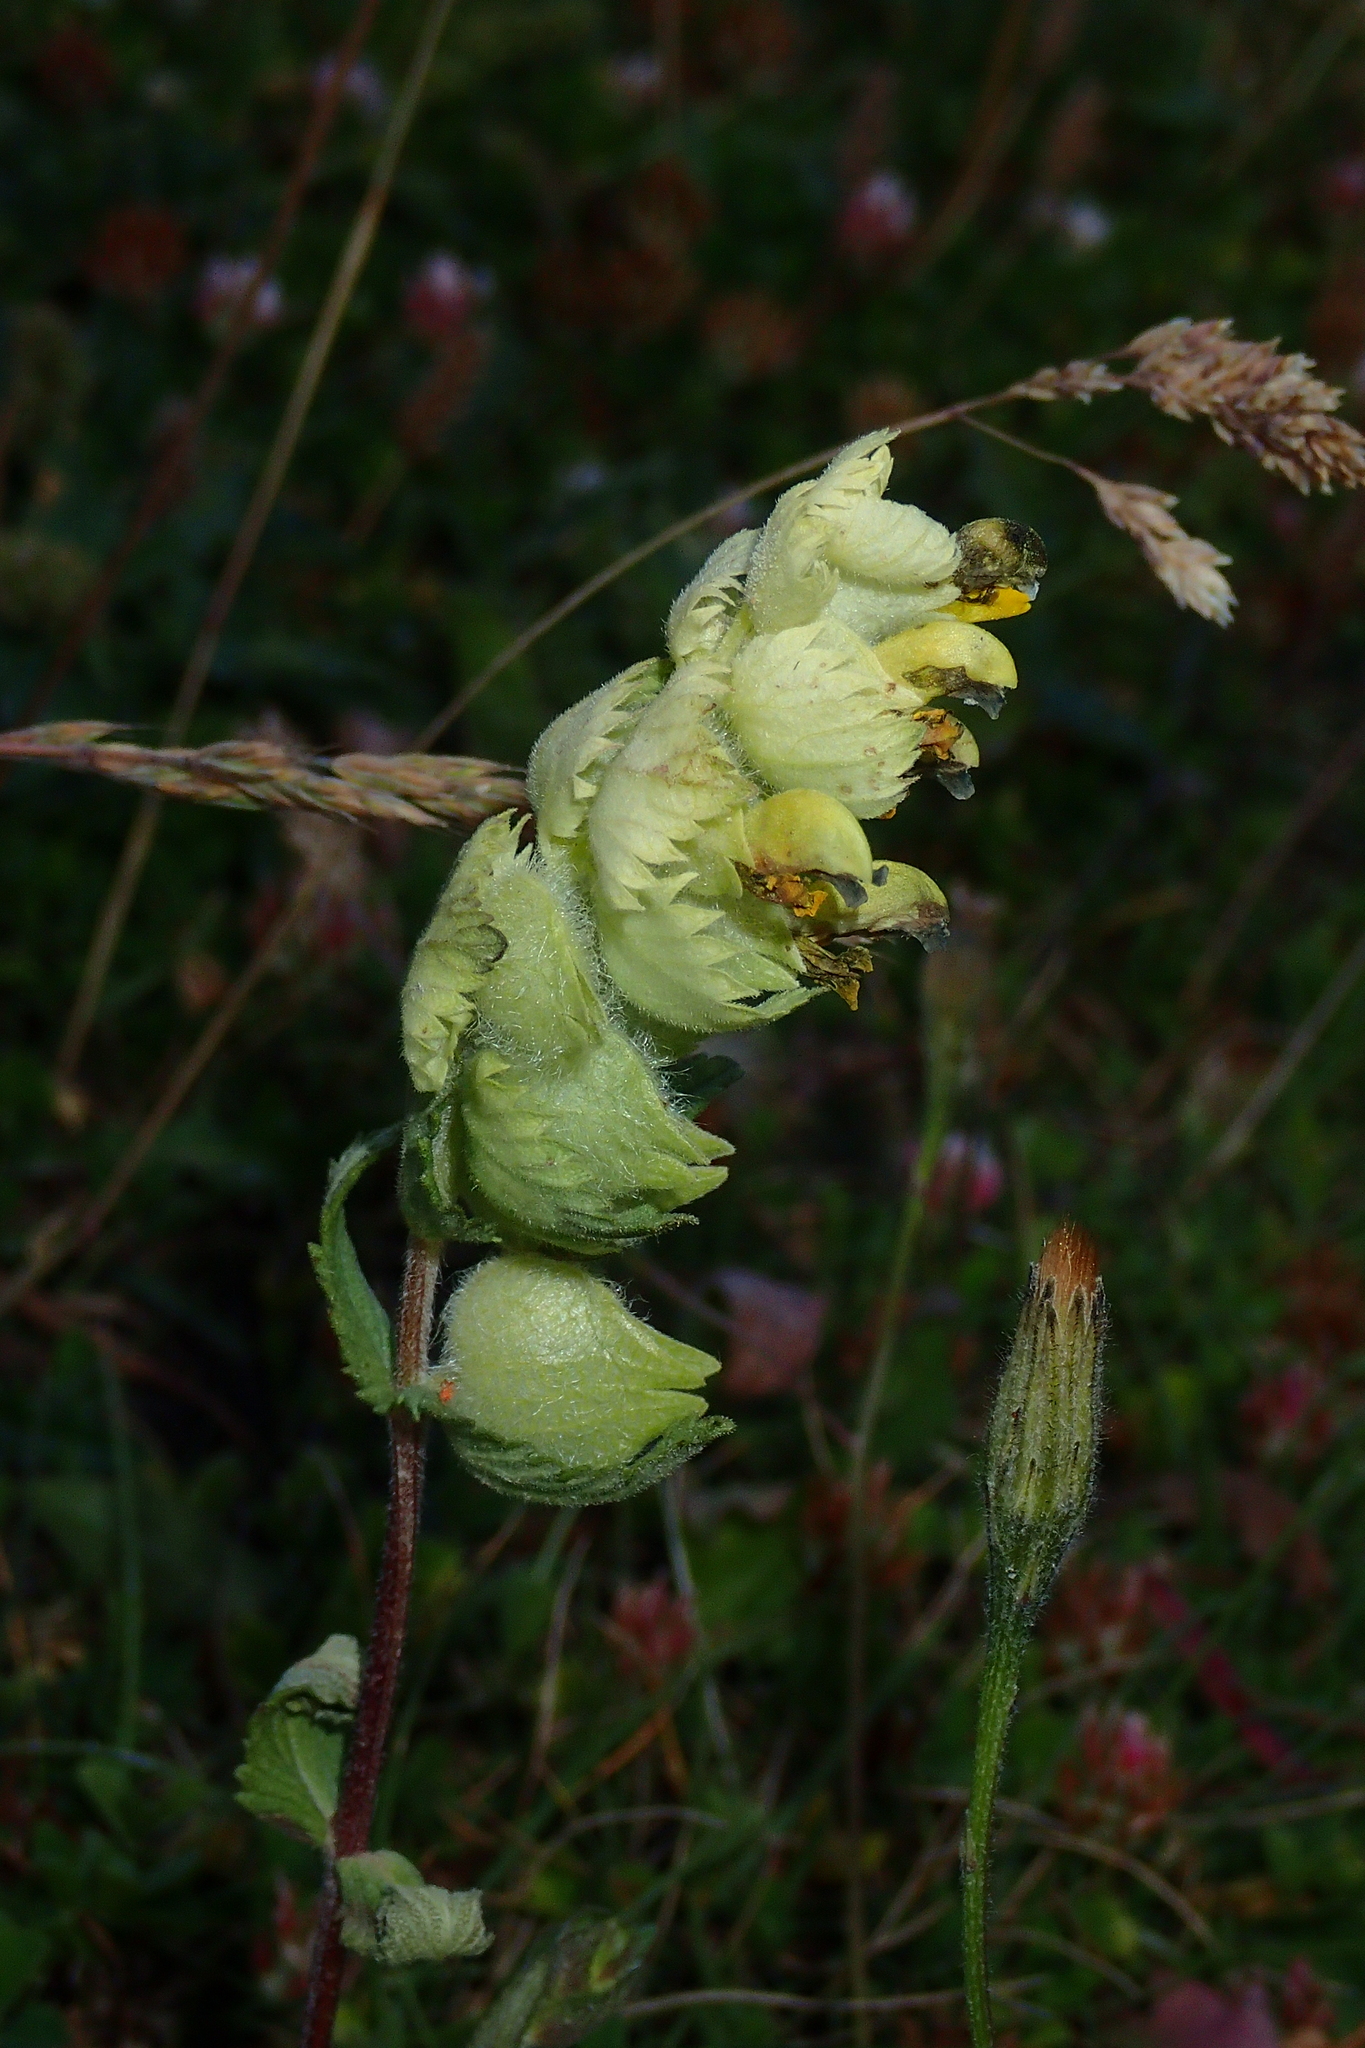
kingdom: Plantae
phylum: Tracheophyta
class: Magnoliopsida
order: Lamiales
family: Orobanchaceae
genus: Rhinanthus
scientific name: Rhinanthus alectorolophus
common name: Greater yellow-rattle
